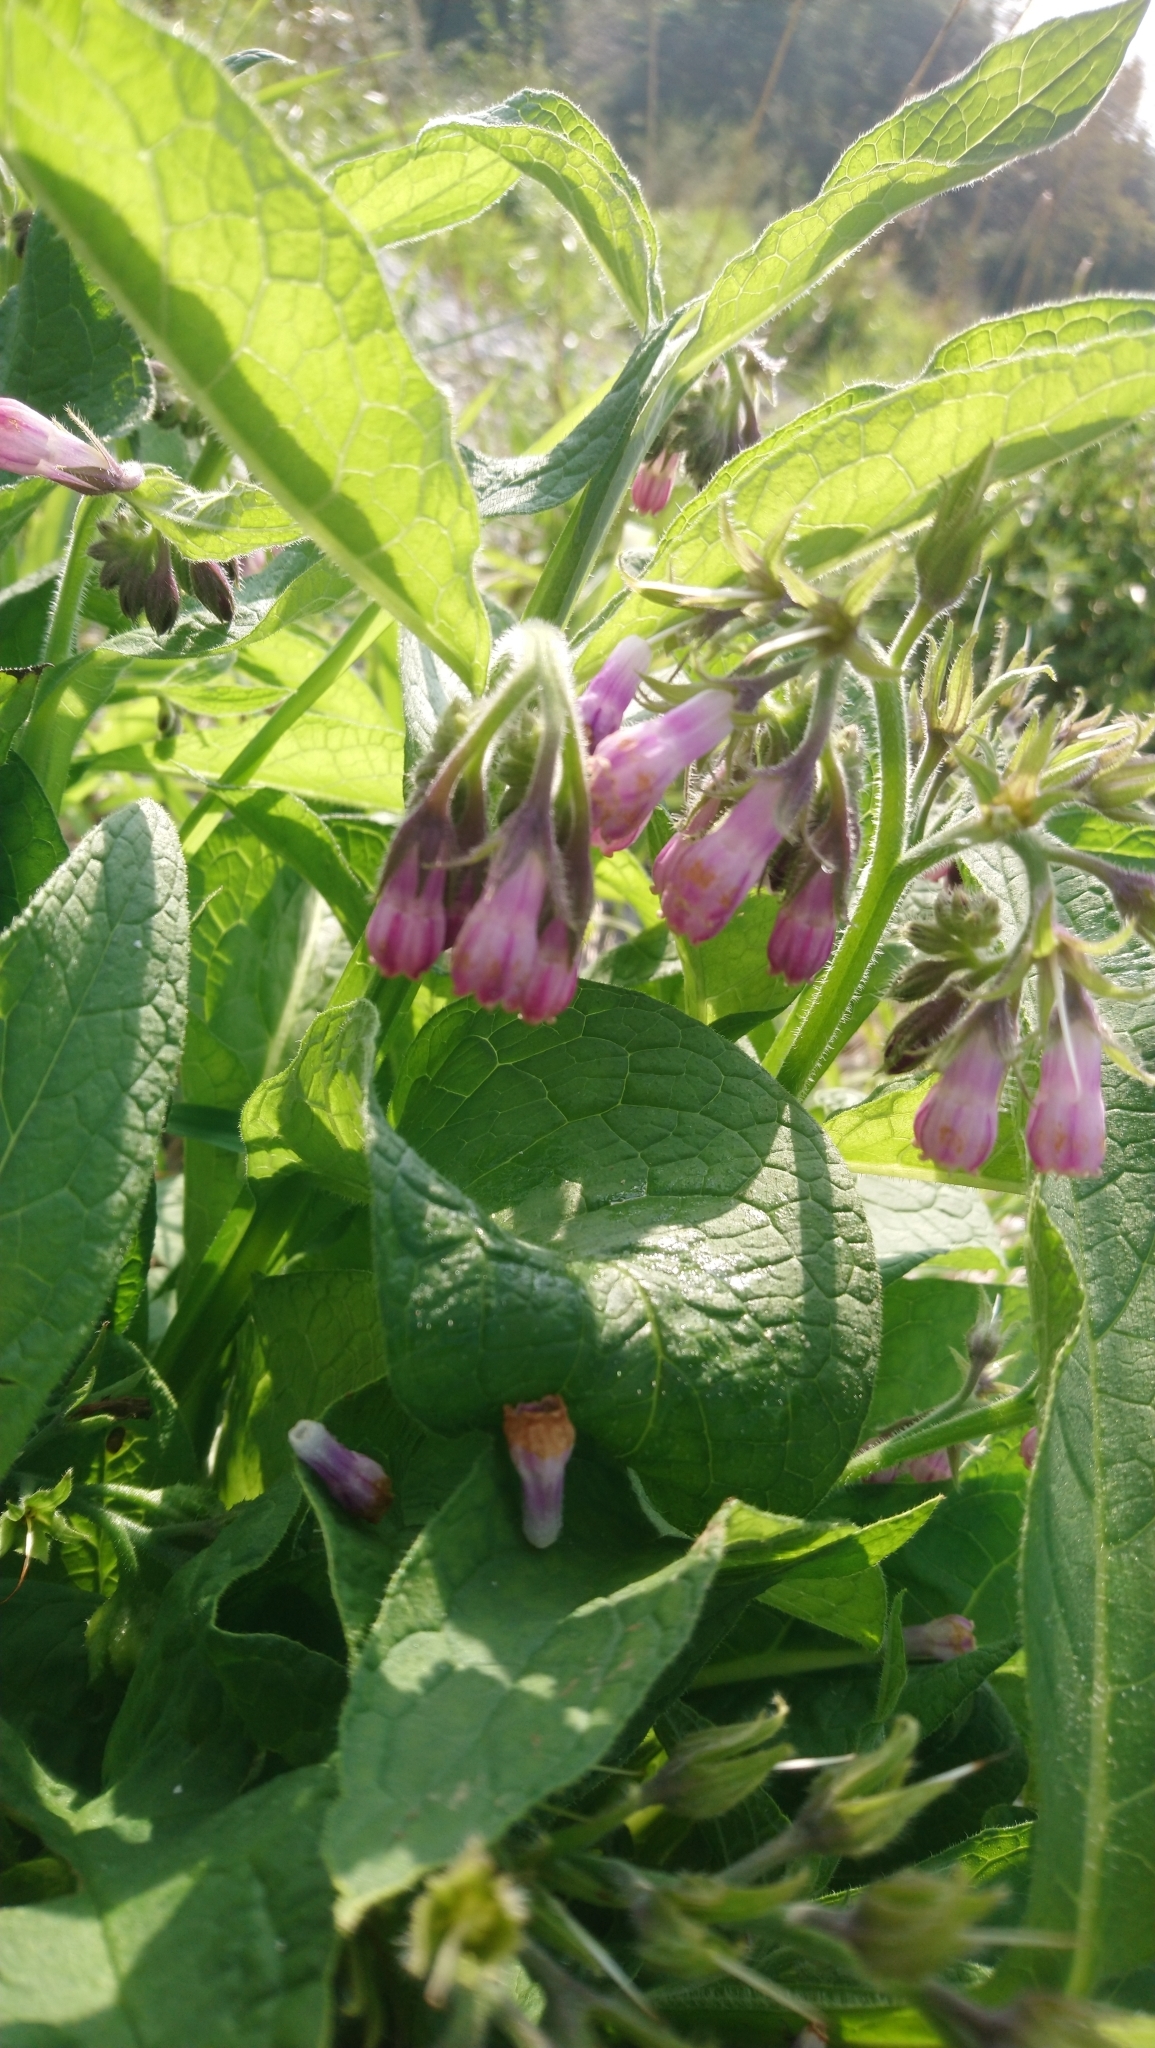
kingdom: Plantae
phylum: Tracheophyta
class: Magnoliopsida
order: Boraginales
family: Boraginaceae
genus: Symphytum
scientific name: Symphytum officinale
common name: Common comfrey
